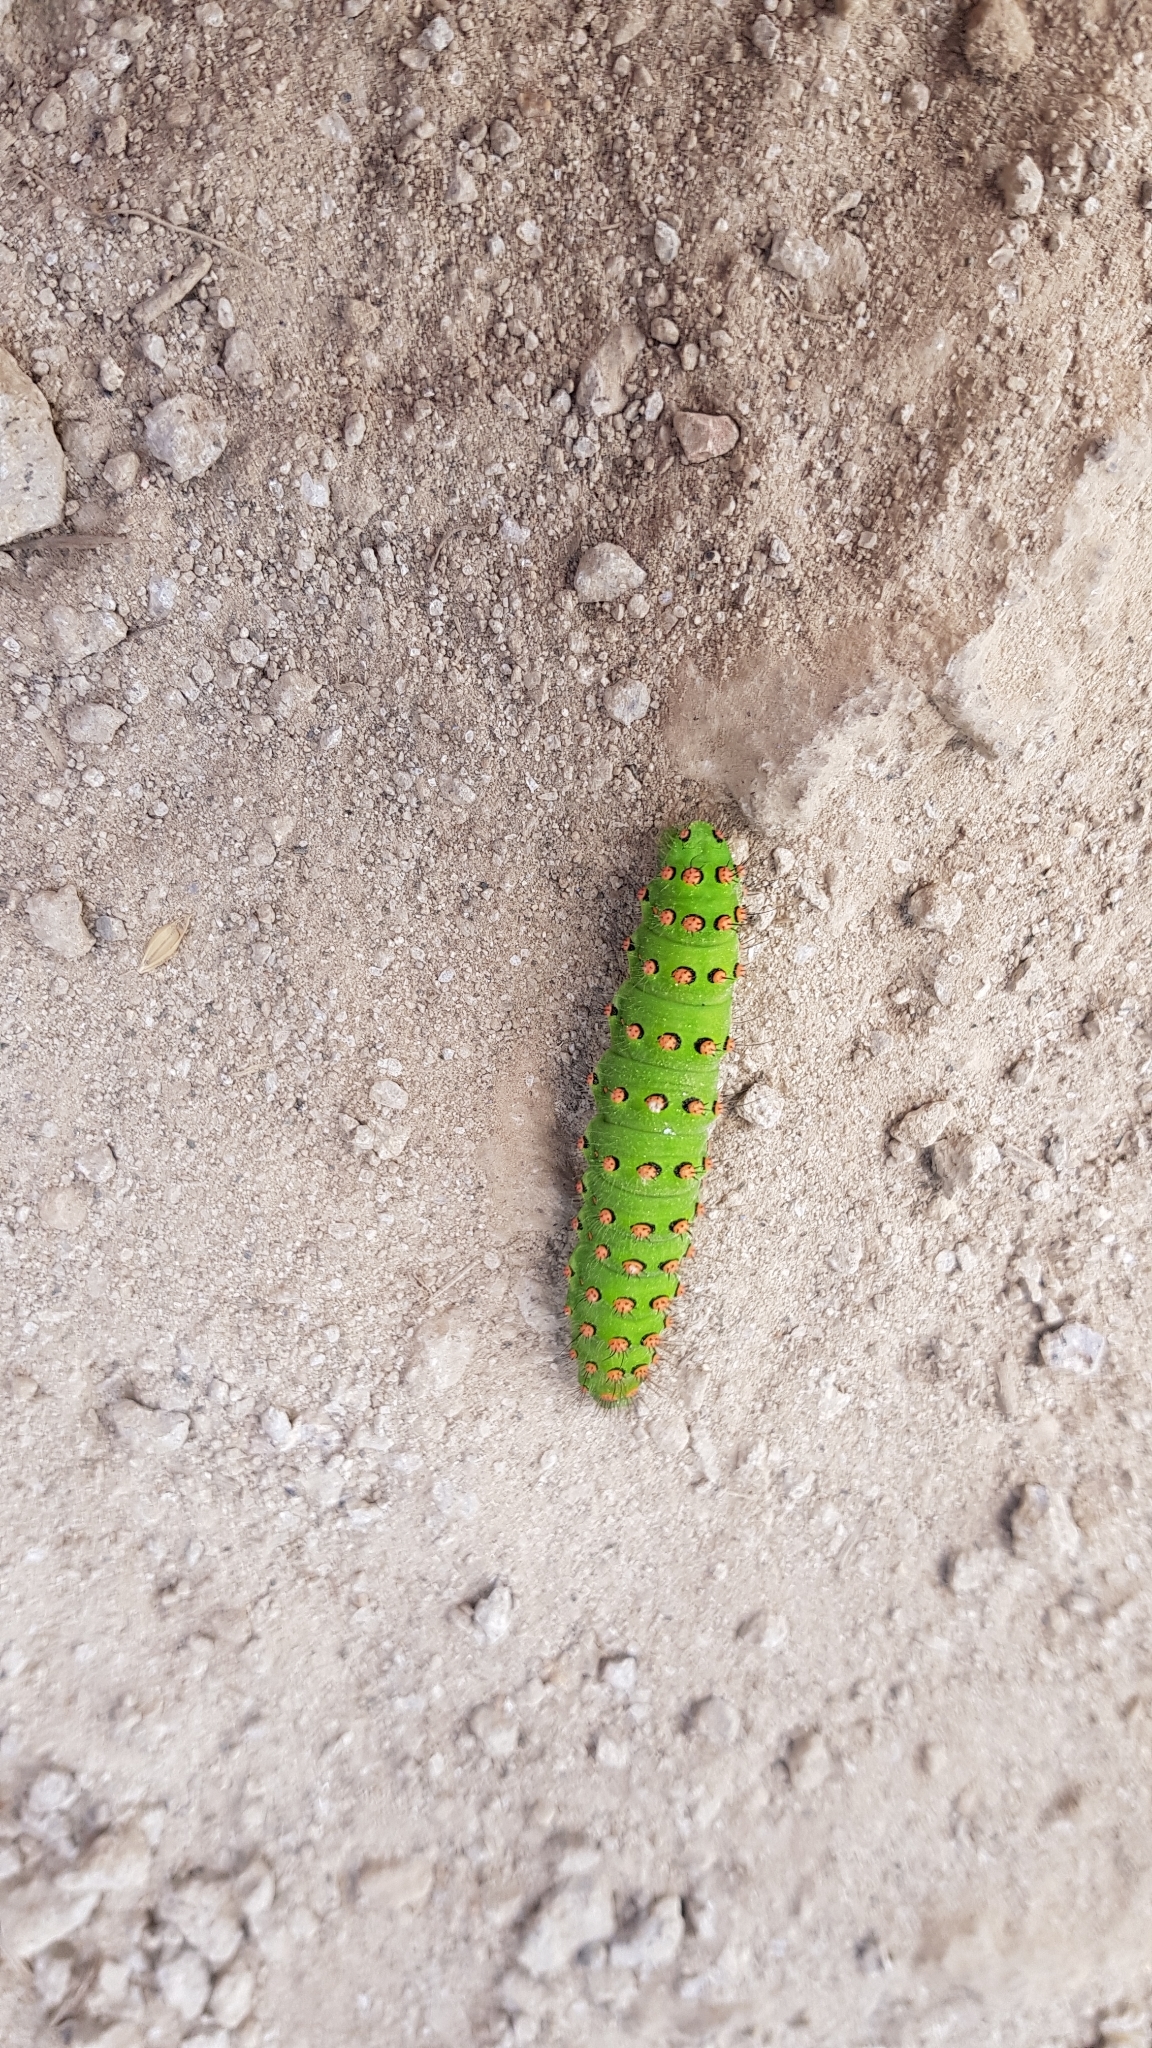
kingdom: Animalia
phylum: Arthropoda
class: Insecta
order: Lepidoptera
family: Saturniidae
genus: Saturnia
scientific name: Saturnia pavonia
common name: Emperor moth
